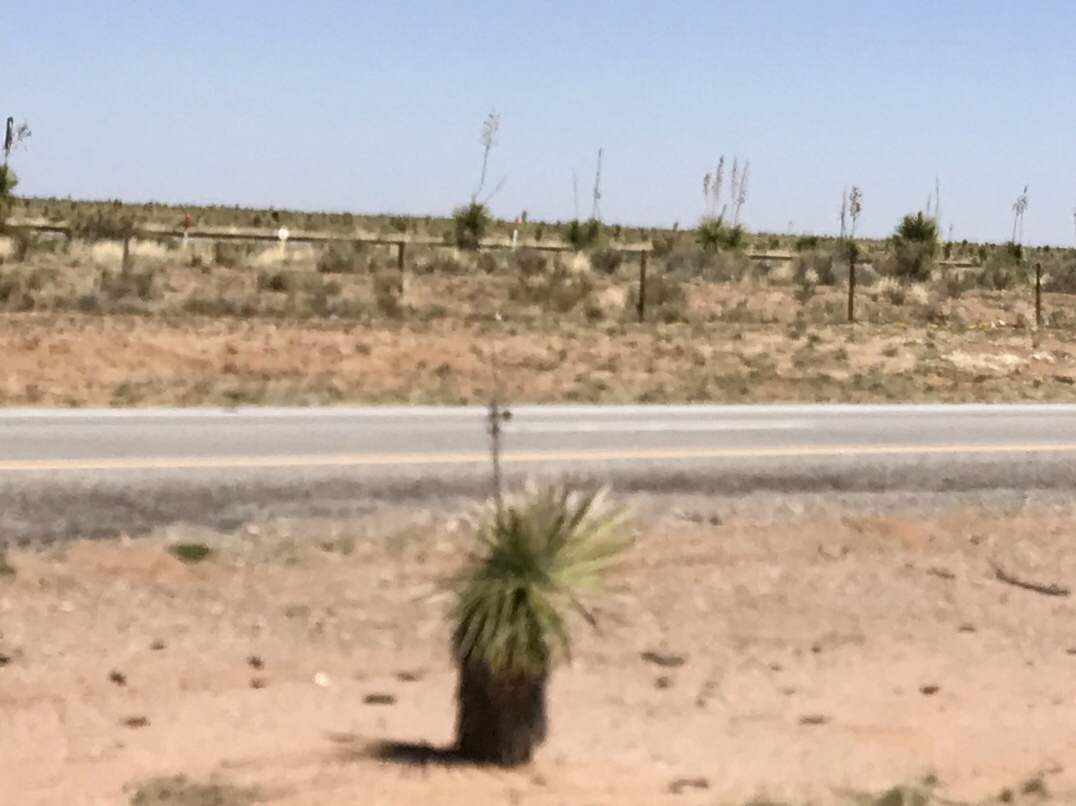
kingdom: Plantae
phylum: Tracheophyta
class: Liliopsida
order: Asparagales
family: Asparagaceae
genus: Yucca
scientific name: Yucca elata
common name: Palmella
